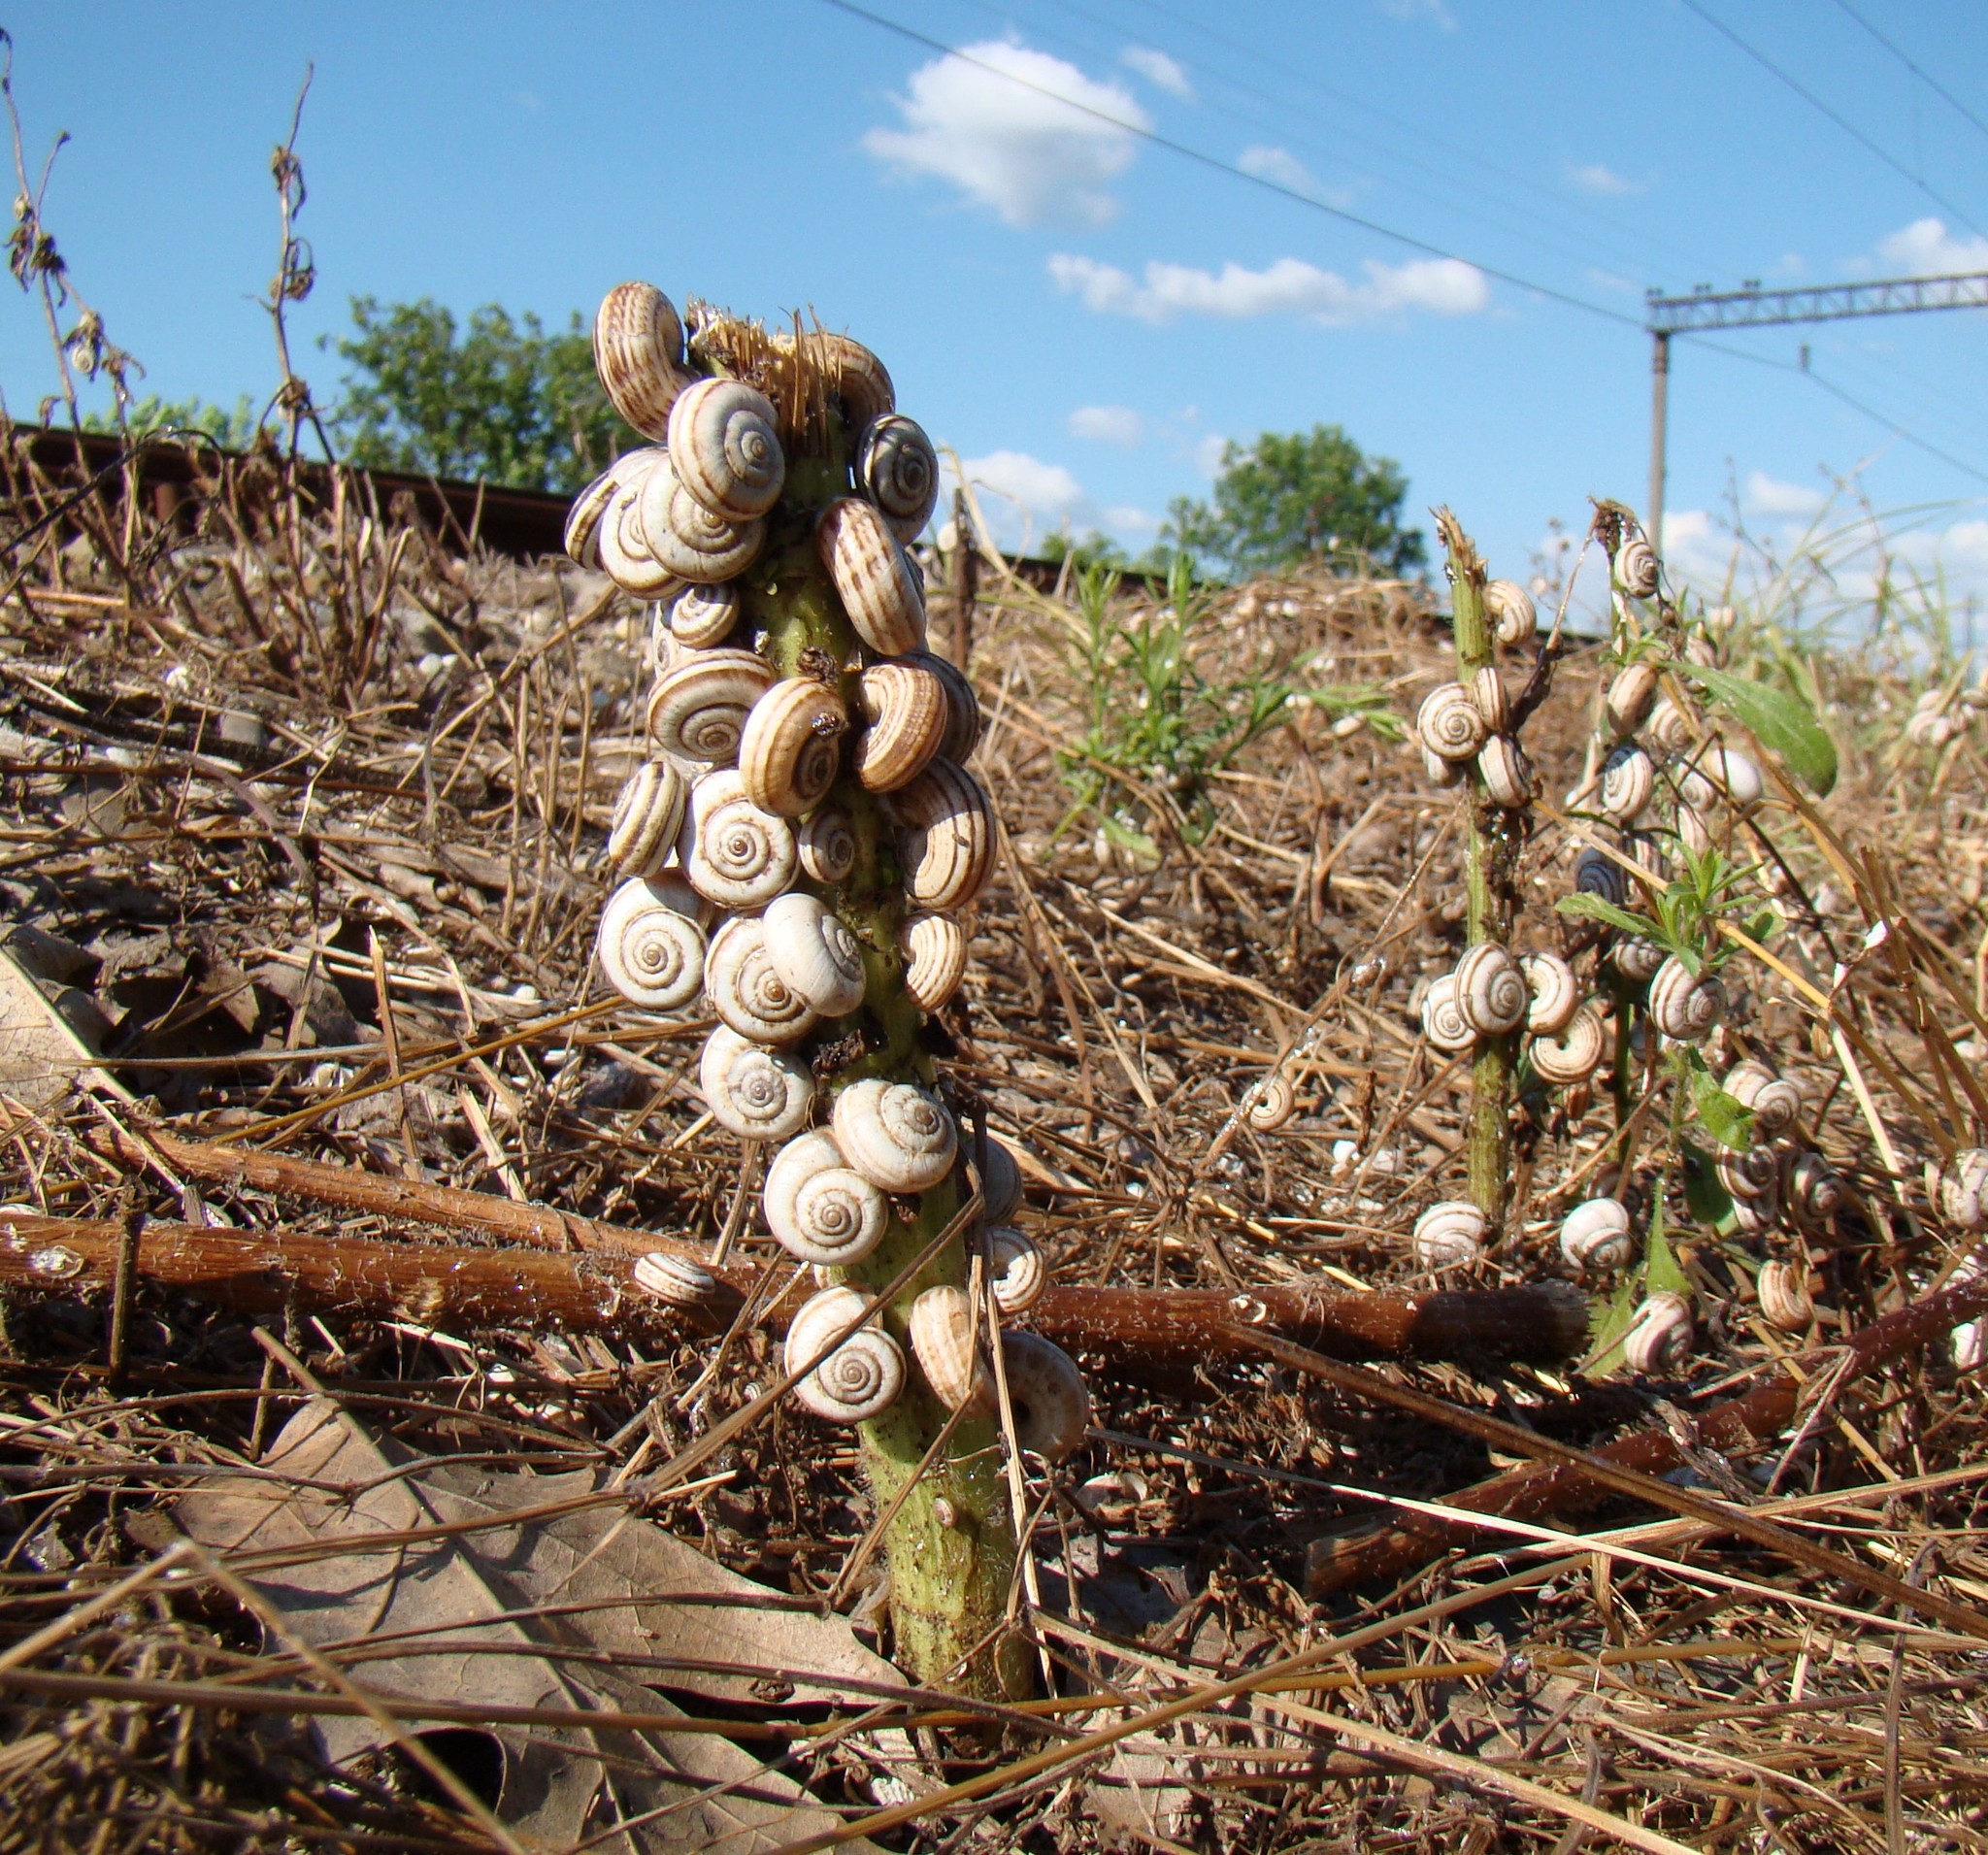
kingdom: Animalia
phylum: Mollusca
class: Gastropoda
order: Stylommatophora
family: Geomitridae
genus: Xeropicta
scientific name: Xeropicta derbentina
